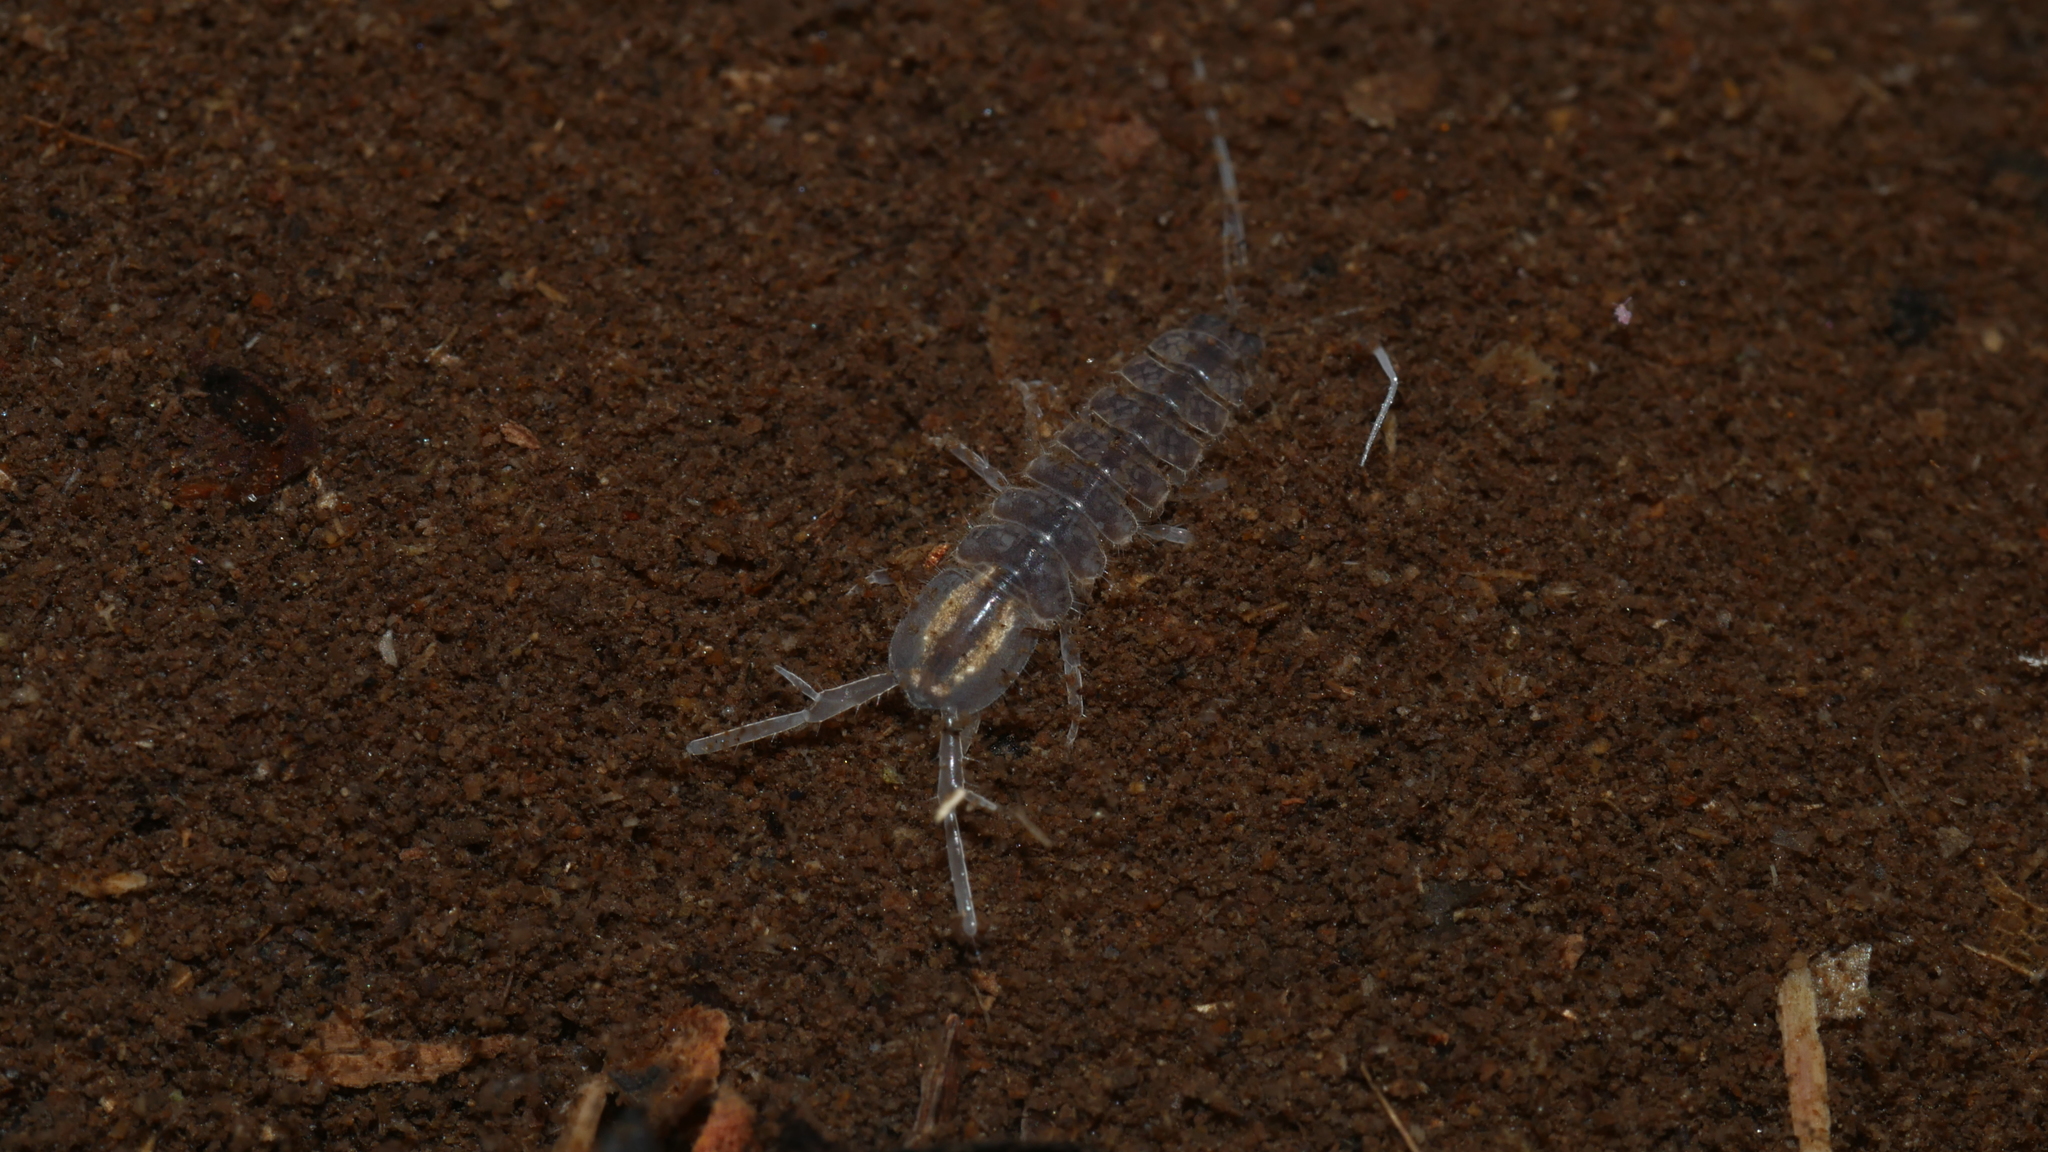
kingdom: Animalia
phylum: Arthropoda
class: Malacostraca
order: Isopoda
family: Asellidae
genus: Caecidotea
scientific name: Caecidotea nodula
